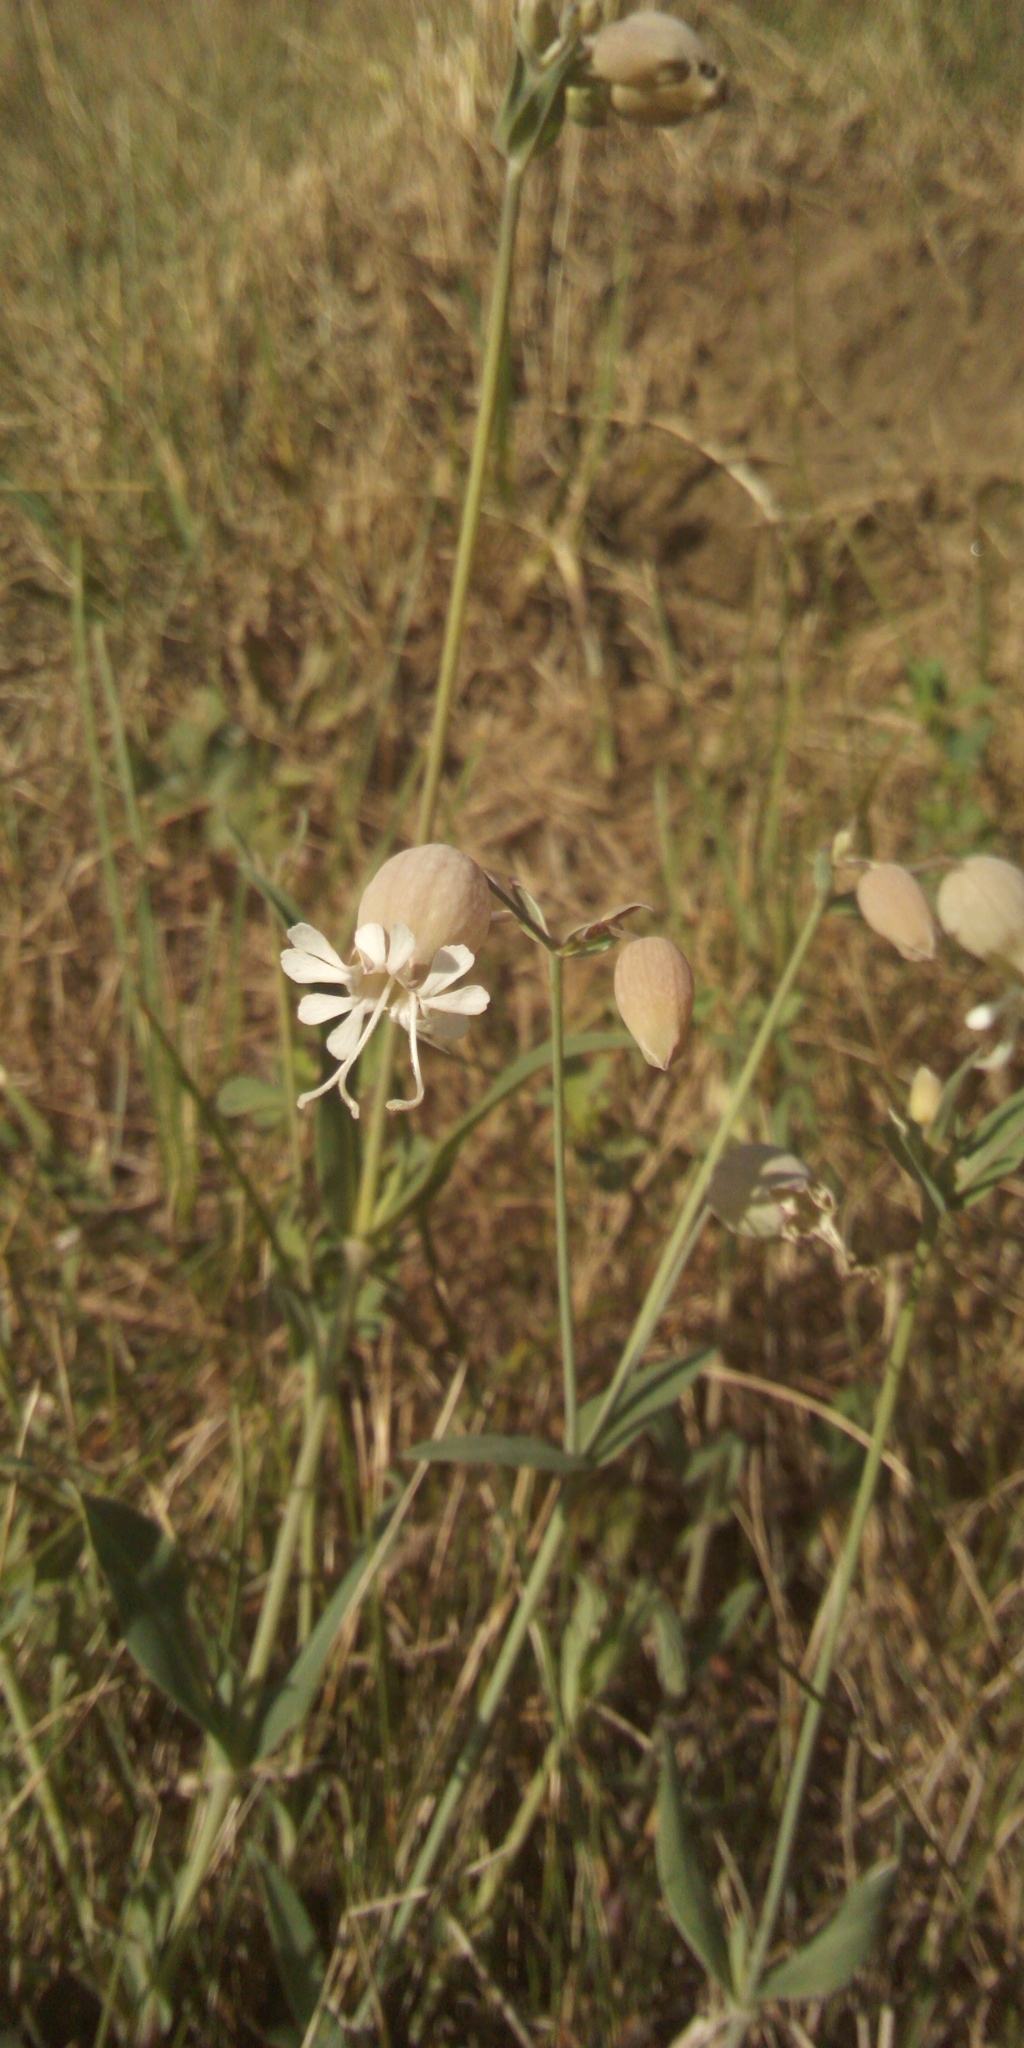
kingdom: Plantae
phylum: Tracheophyta
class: Magnoliopsida
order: Caryophyllales
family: Caryophyllaceae
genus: Silene
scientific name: Silene vulgaris
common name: Bladder campion
